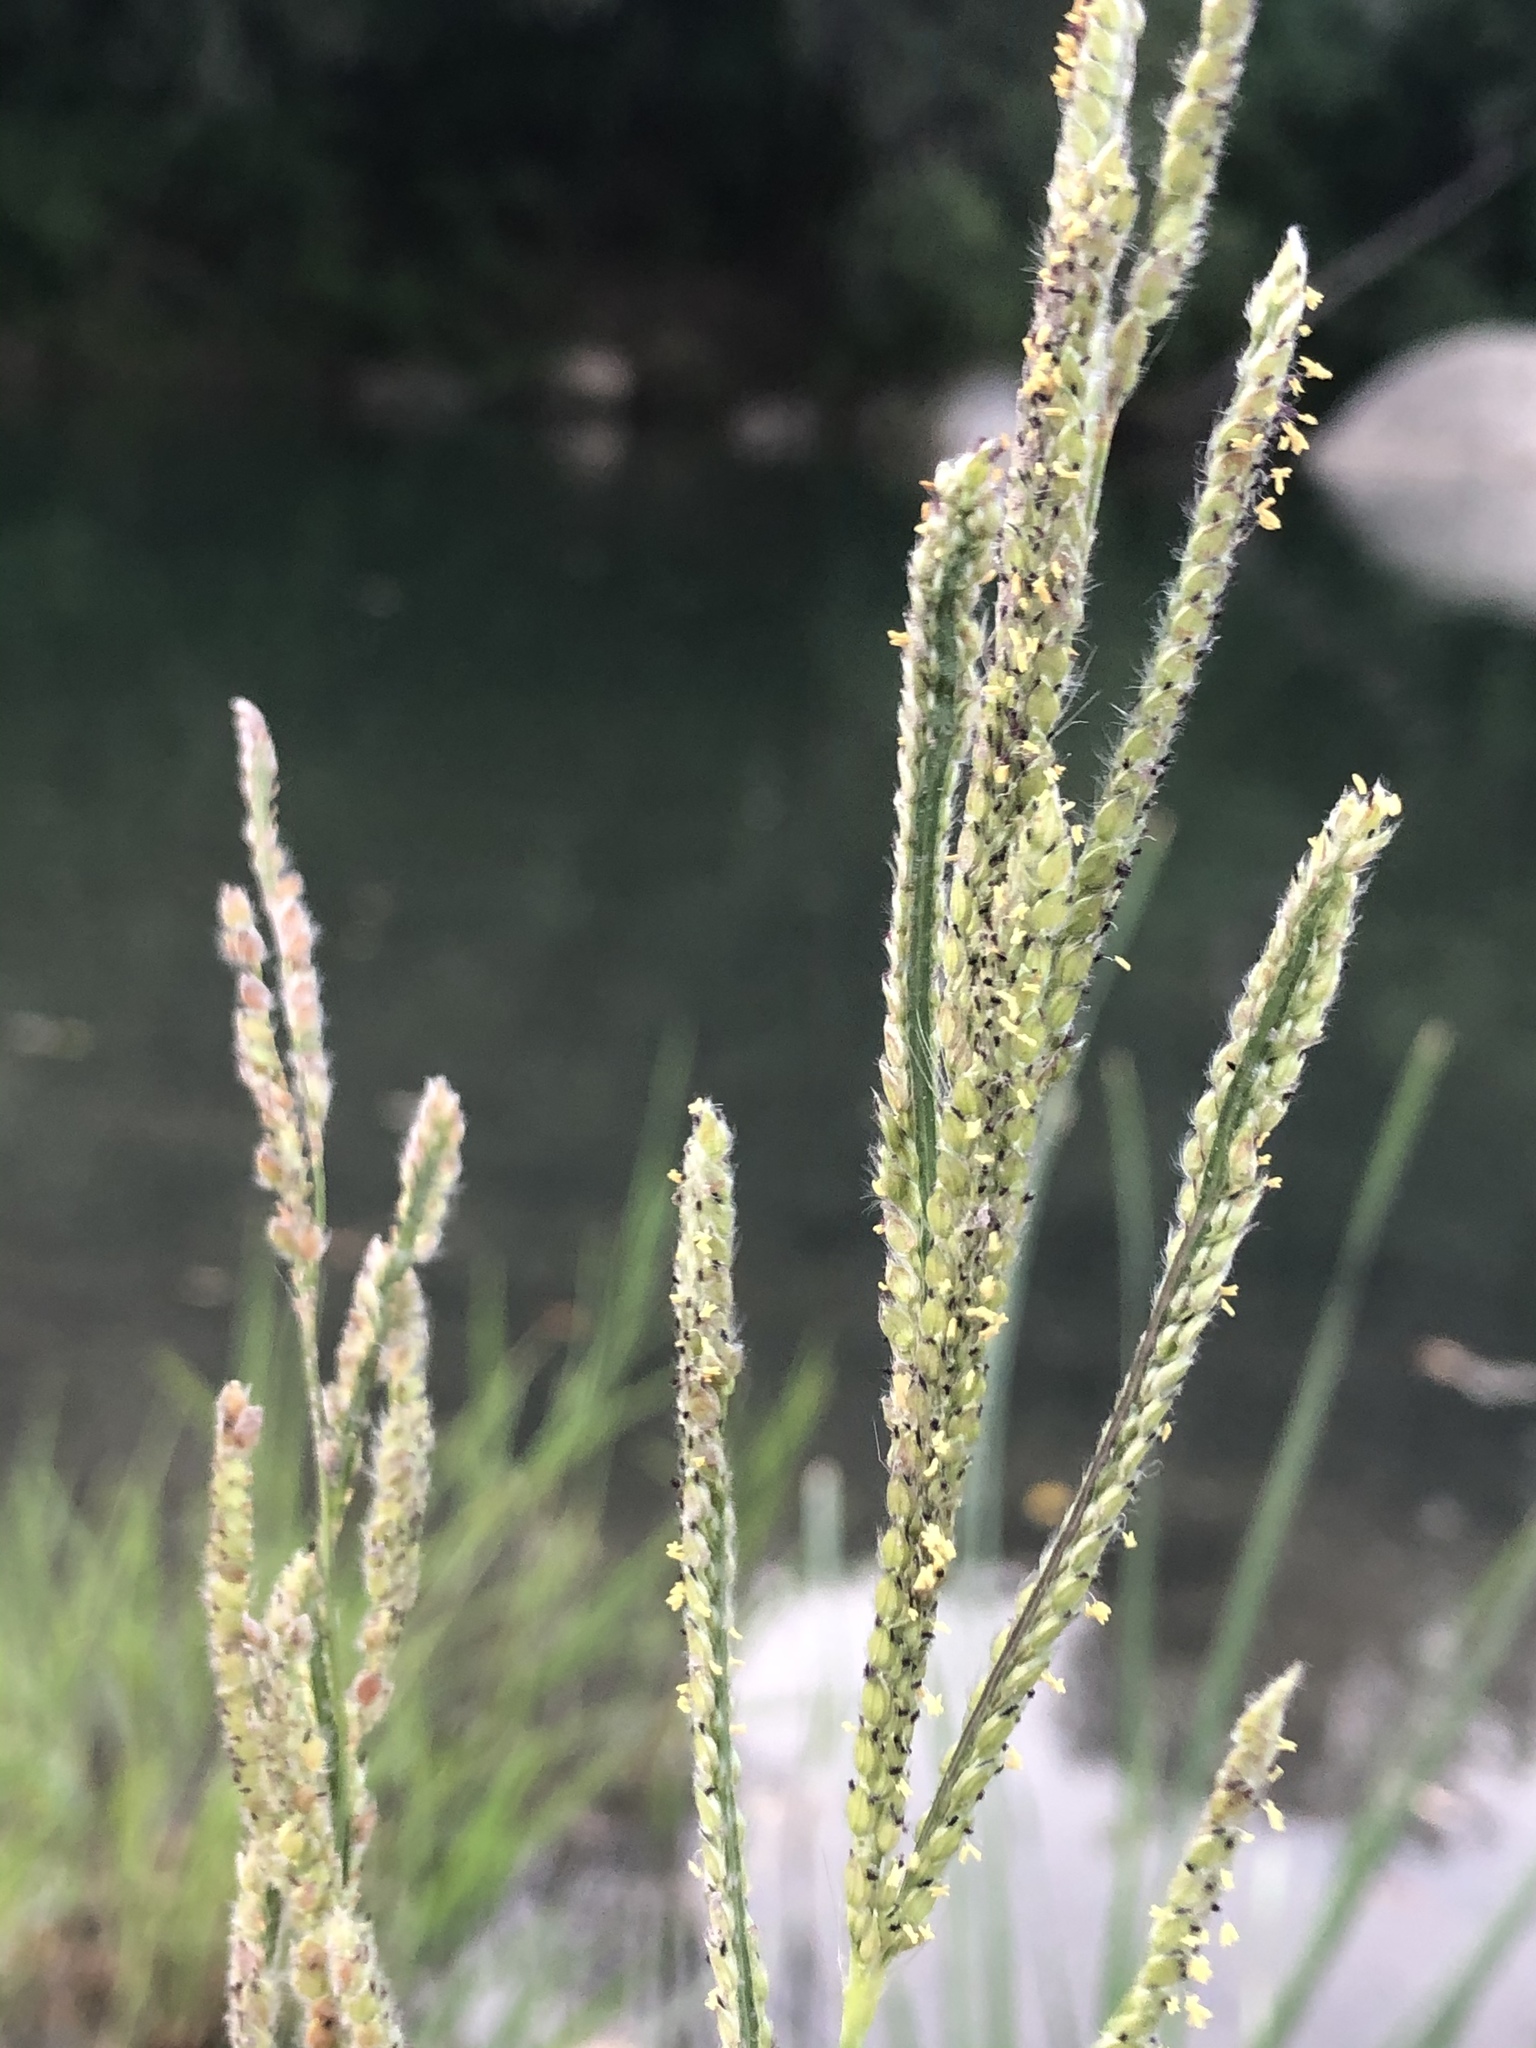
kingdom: Plantae
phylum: Tracheophyta
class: Liliopsida
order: Poales
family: Poaceae
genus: Paspalum
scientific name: Paspalum urvillei
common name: Vasey's grass
